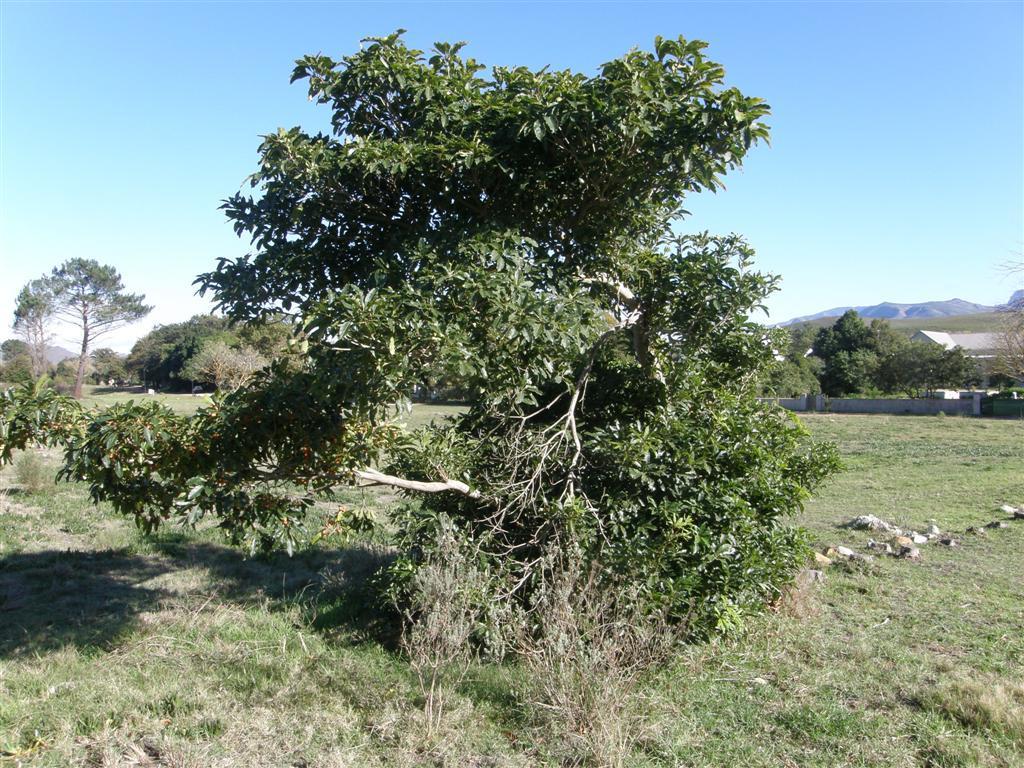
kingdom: Plantae
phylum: Tracheophyta
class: Magnoliopsida
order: Apiales
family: Pittosporaceae
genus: Pittosporum
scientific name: Pittosporum undulatum
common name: Australian cheesewood
